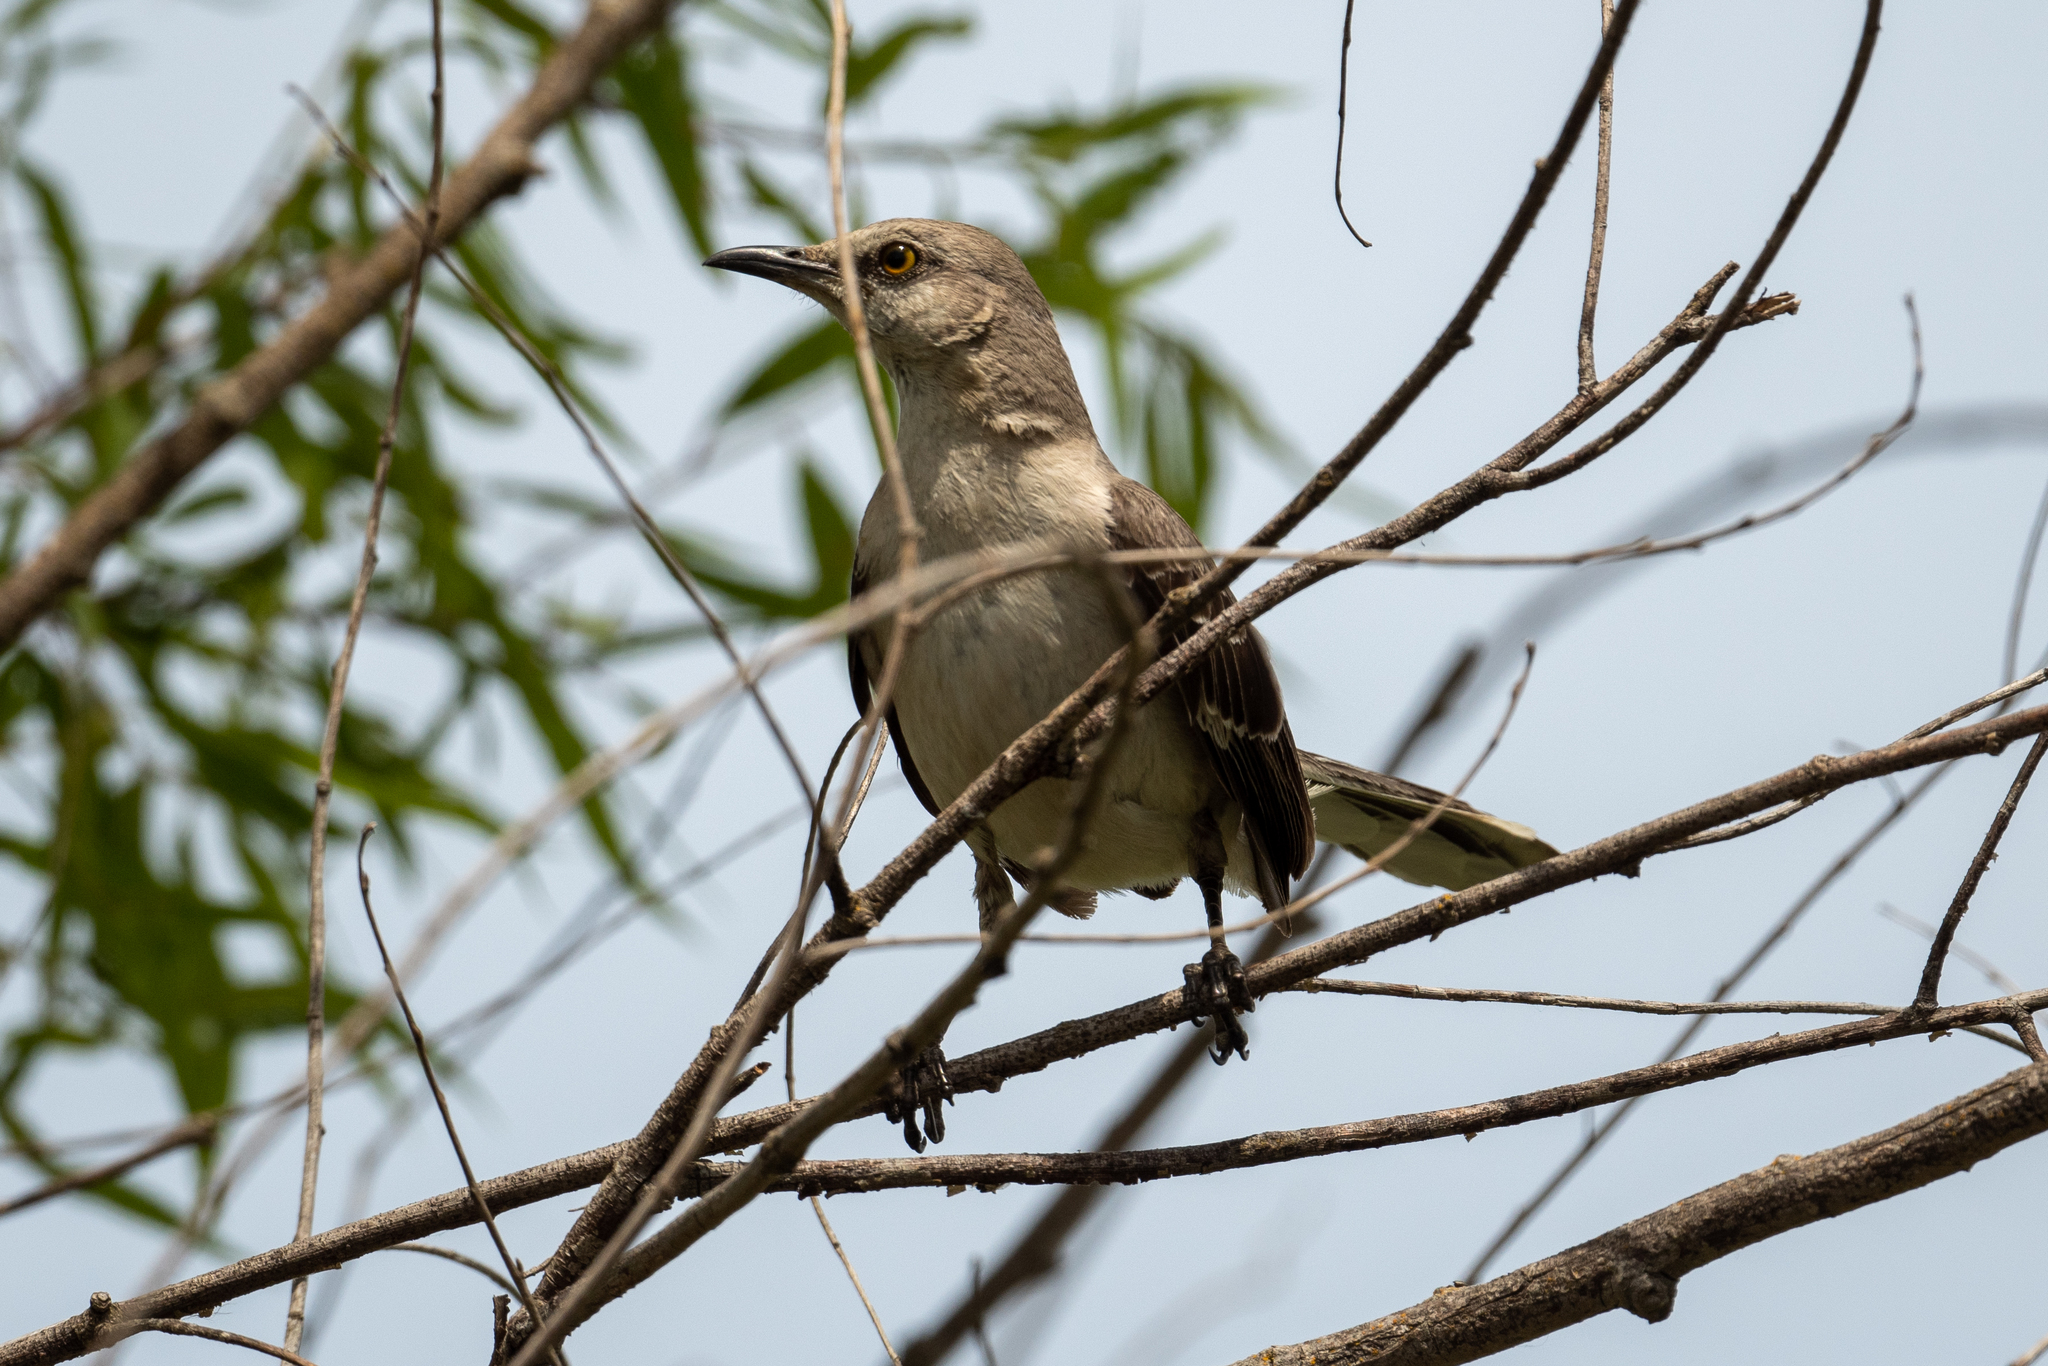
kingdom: Animalia
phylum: Chordata
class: Aves
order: Passeriformes
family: Mimidae
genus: Mimus
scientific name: Mimus polyglottos
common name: Northern mockingbird
